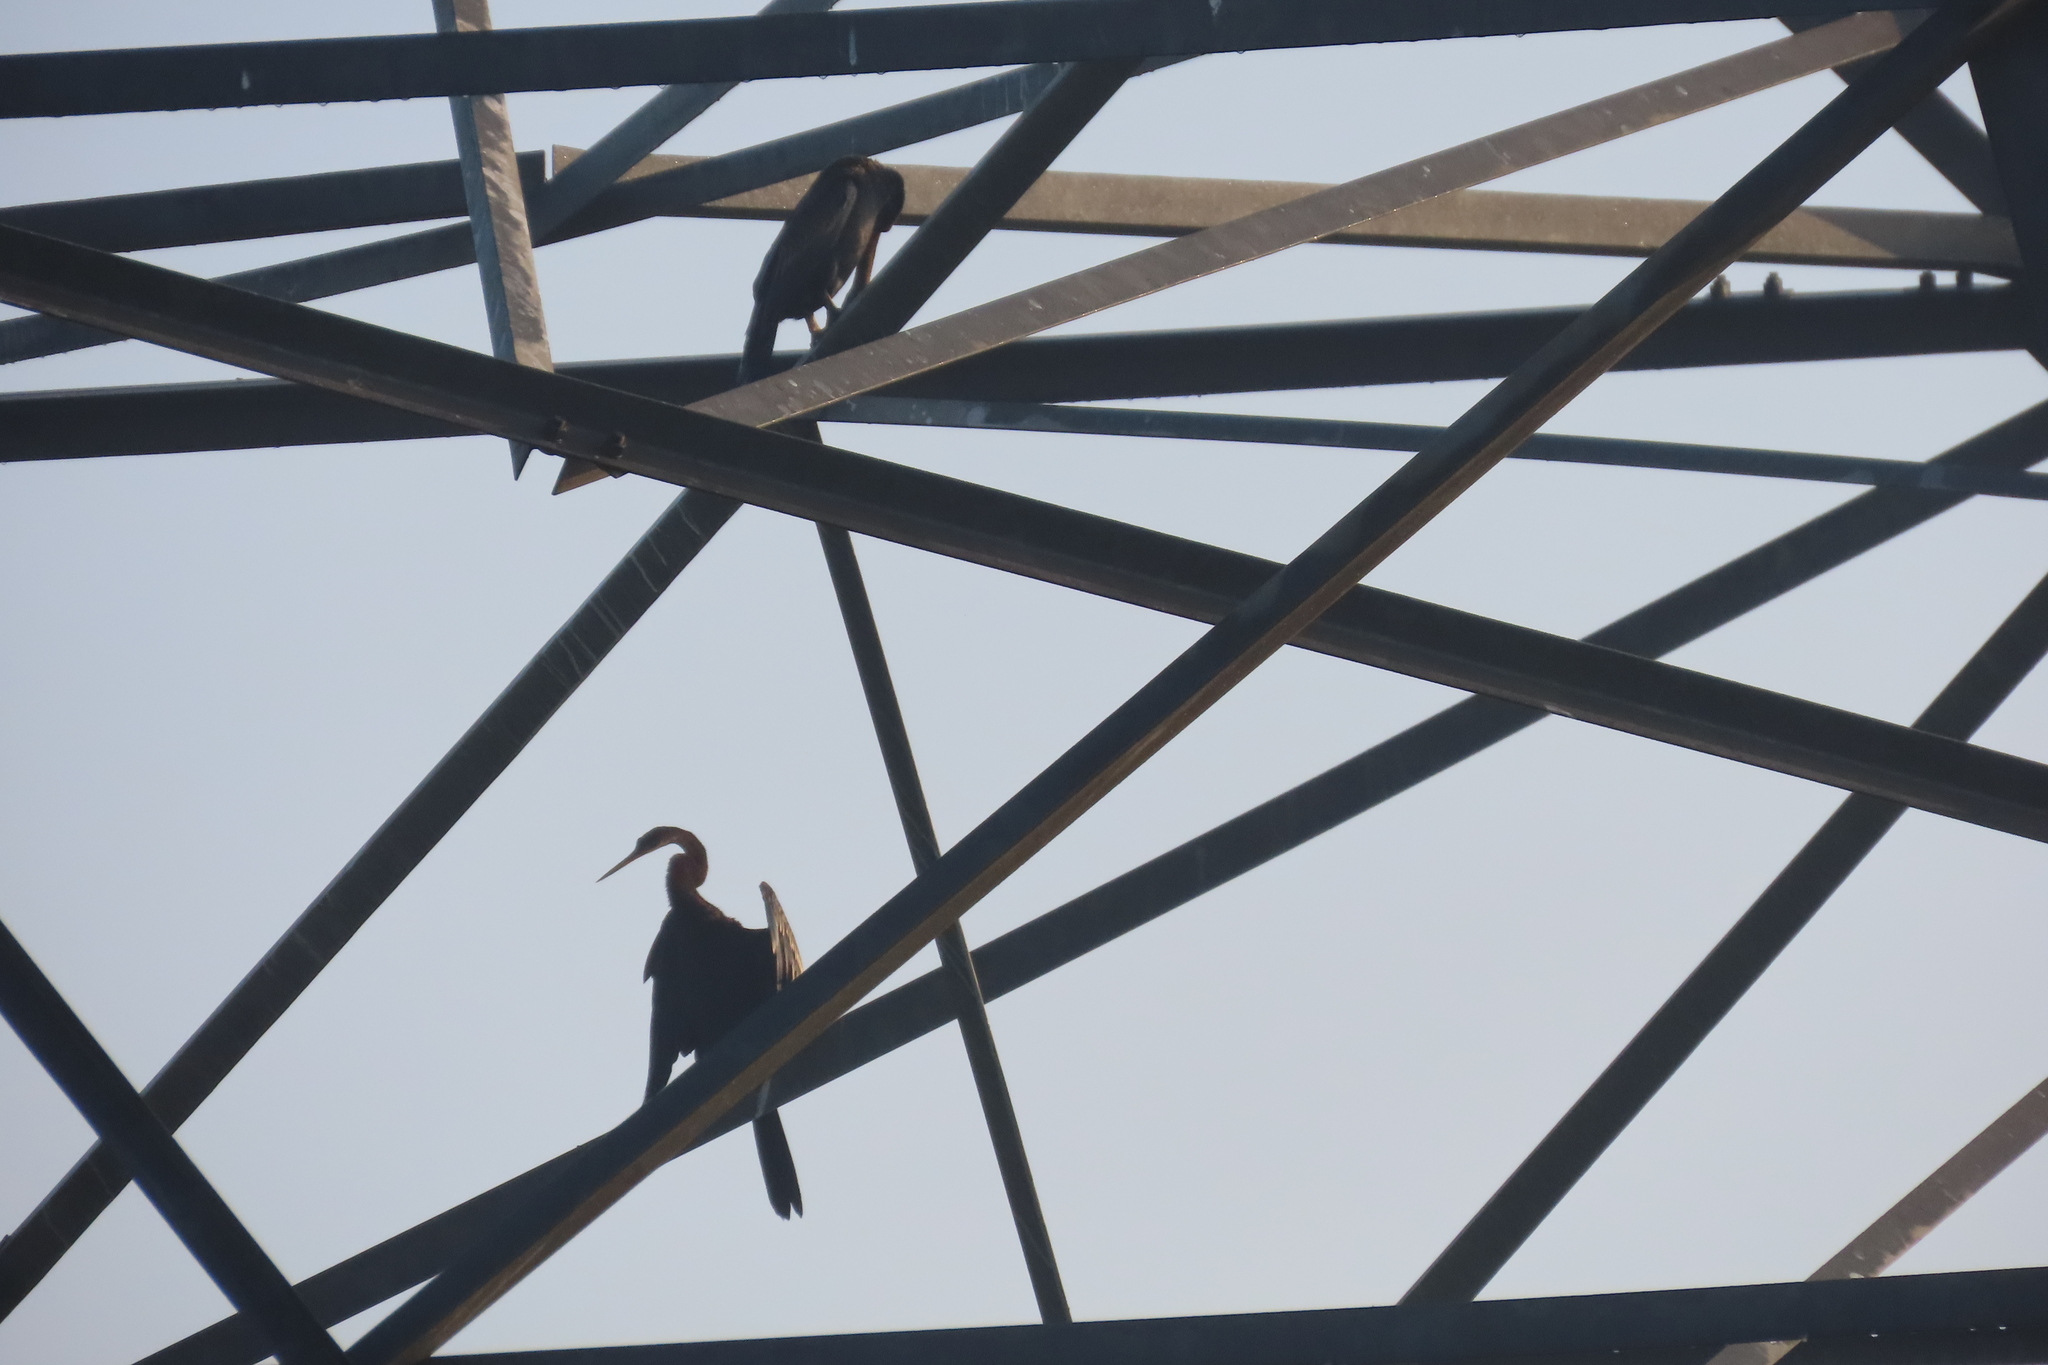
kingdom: Animalia
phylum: Chordata
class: Aves
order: Suliformes
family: Anhingidae
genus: Anhinga
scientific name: Anhinga melanogaster
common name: Oriental darter
